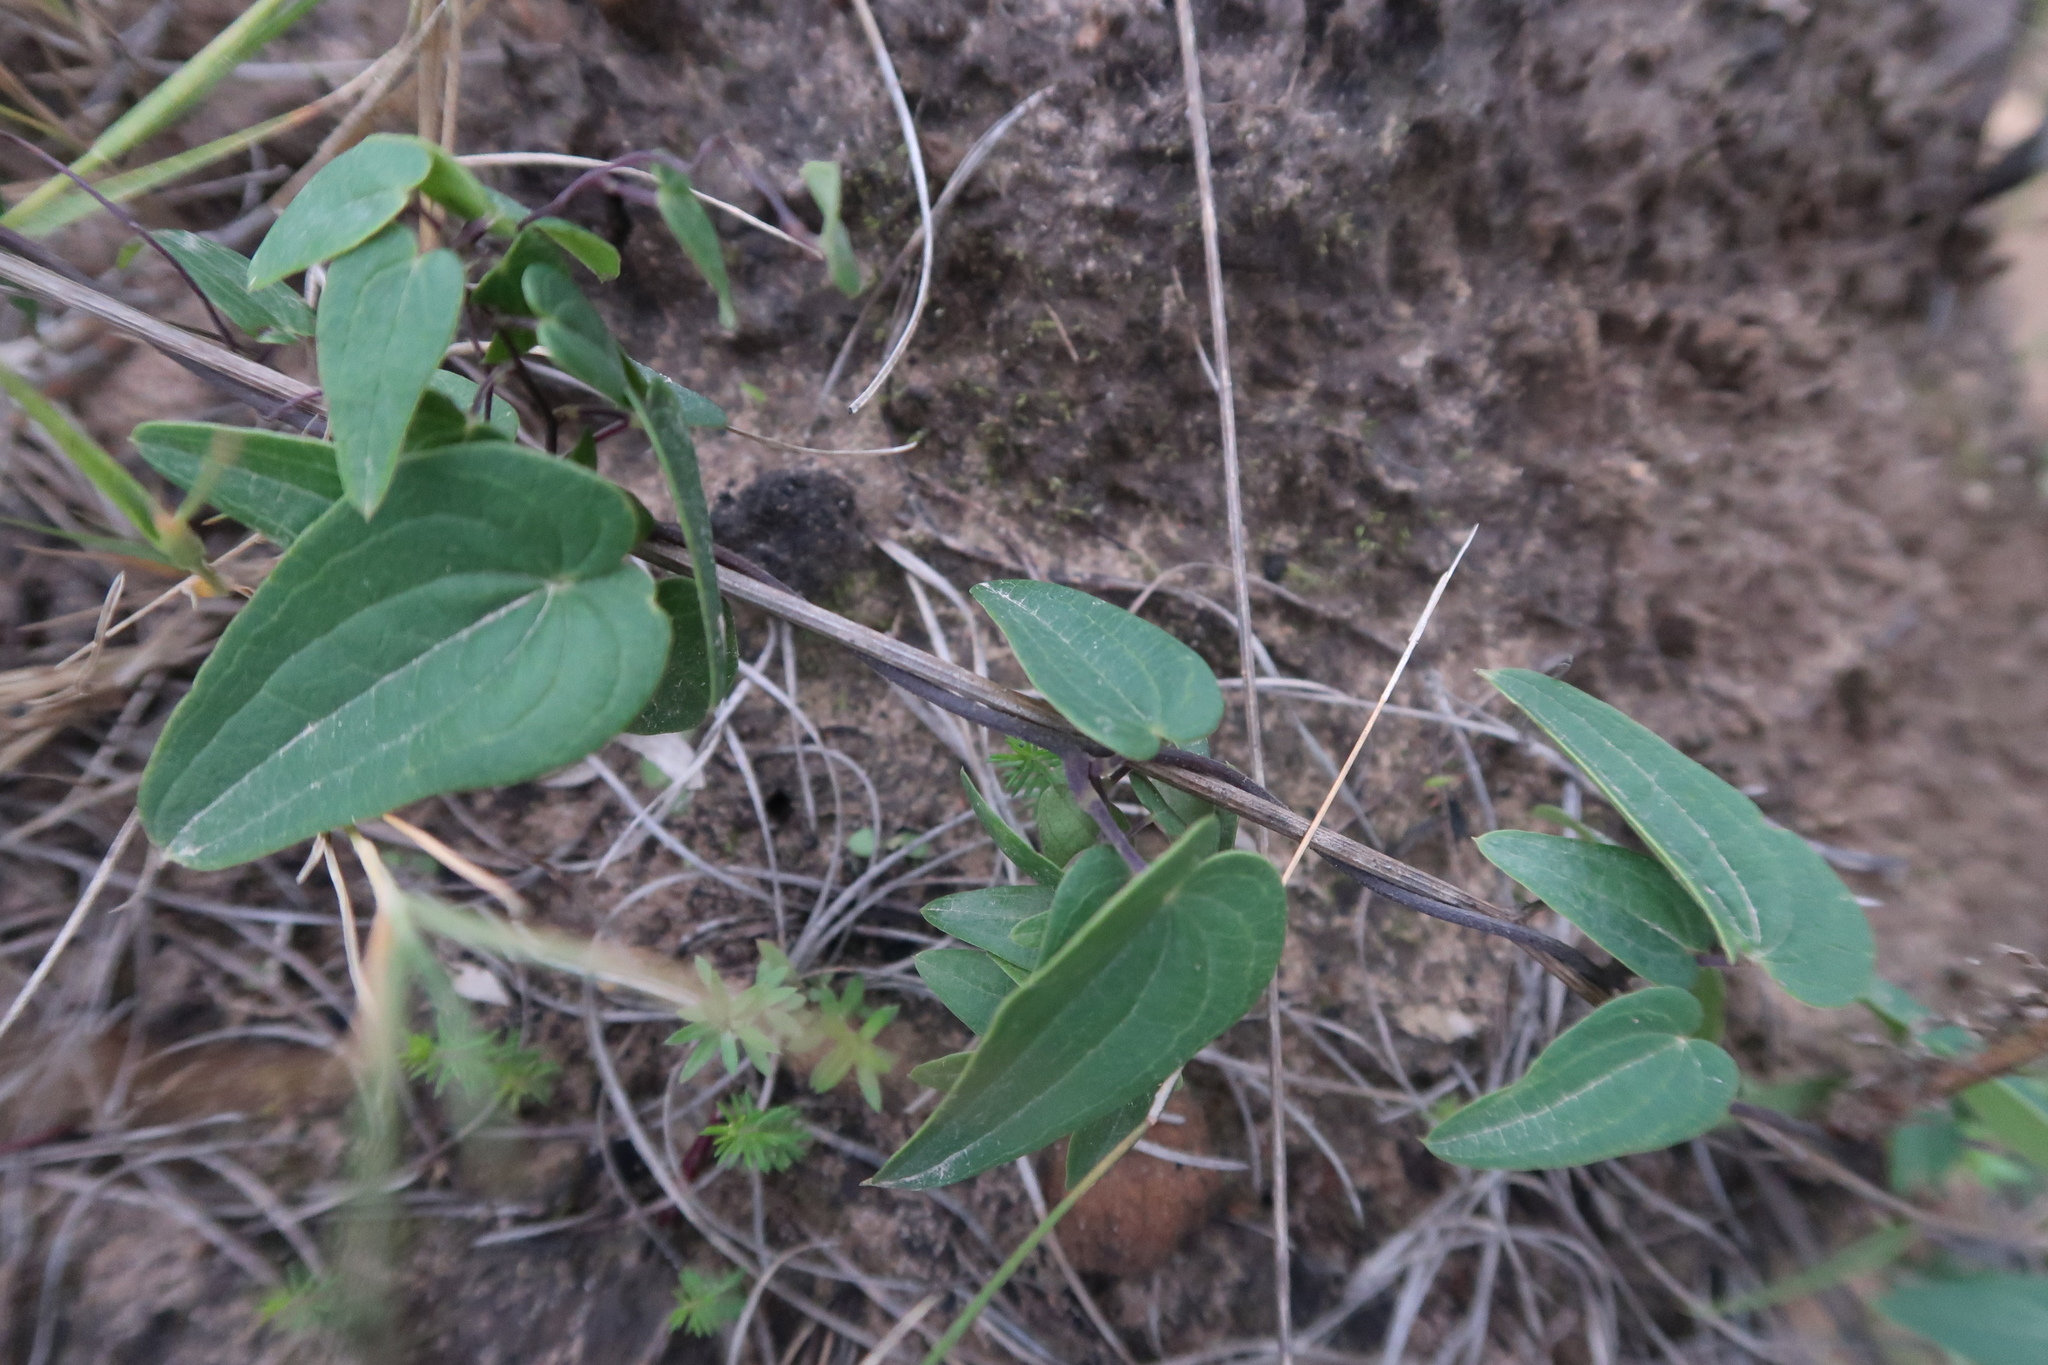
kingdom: Plantae
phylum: Tracheophyta
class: Liliopsida
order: Dioscoreales
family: Dioscoreaceae
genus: Dioscorea
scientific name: Dioscorea burchellii
